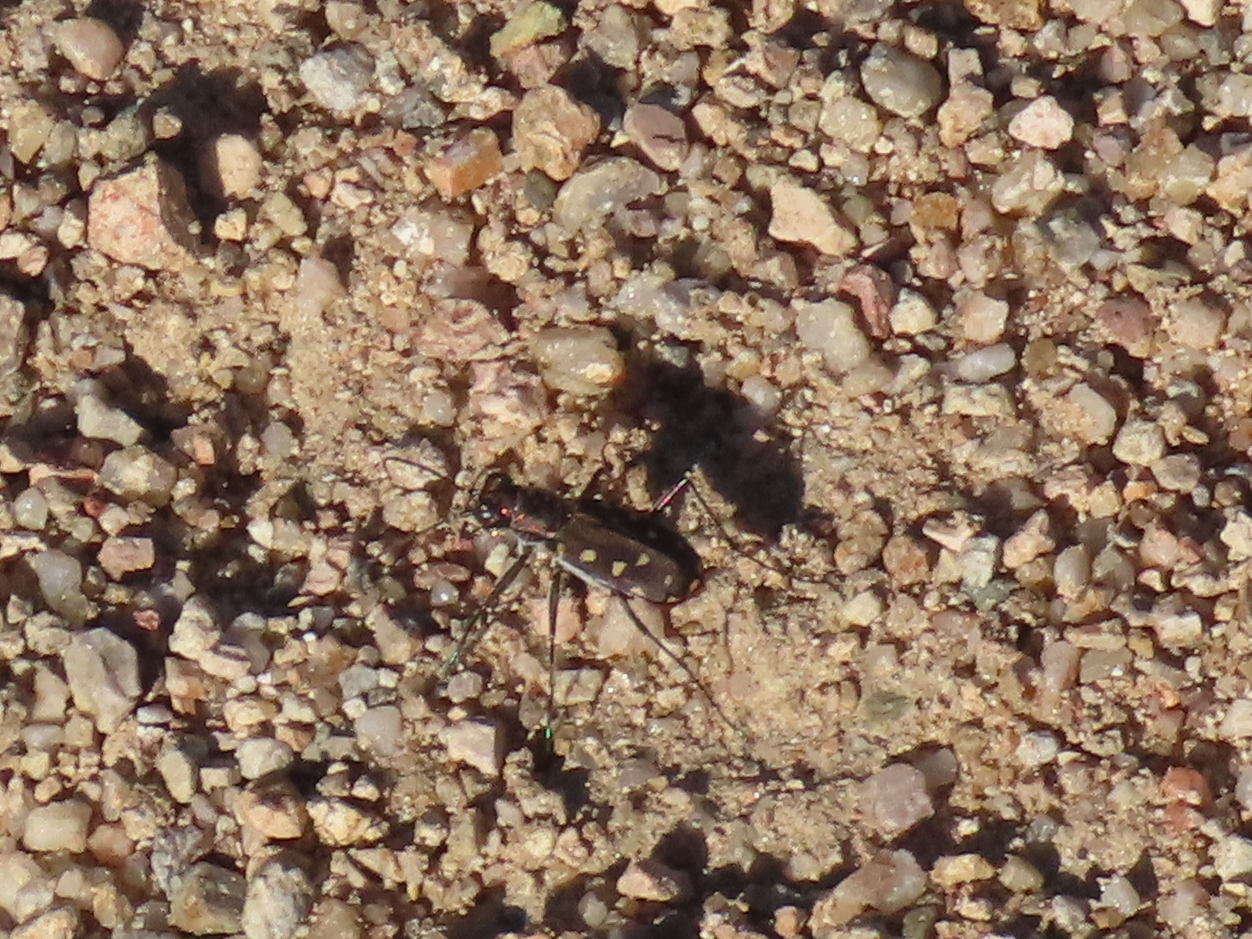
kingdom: Animalia
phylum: Arthropoda
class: Insecta
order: Coleoptera
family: Carabidae
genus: Cicindela
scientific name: Cicindela sedecimpunctata
